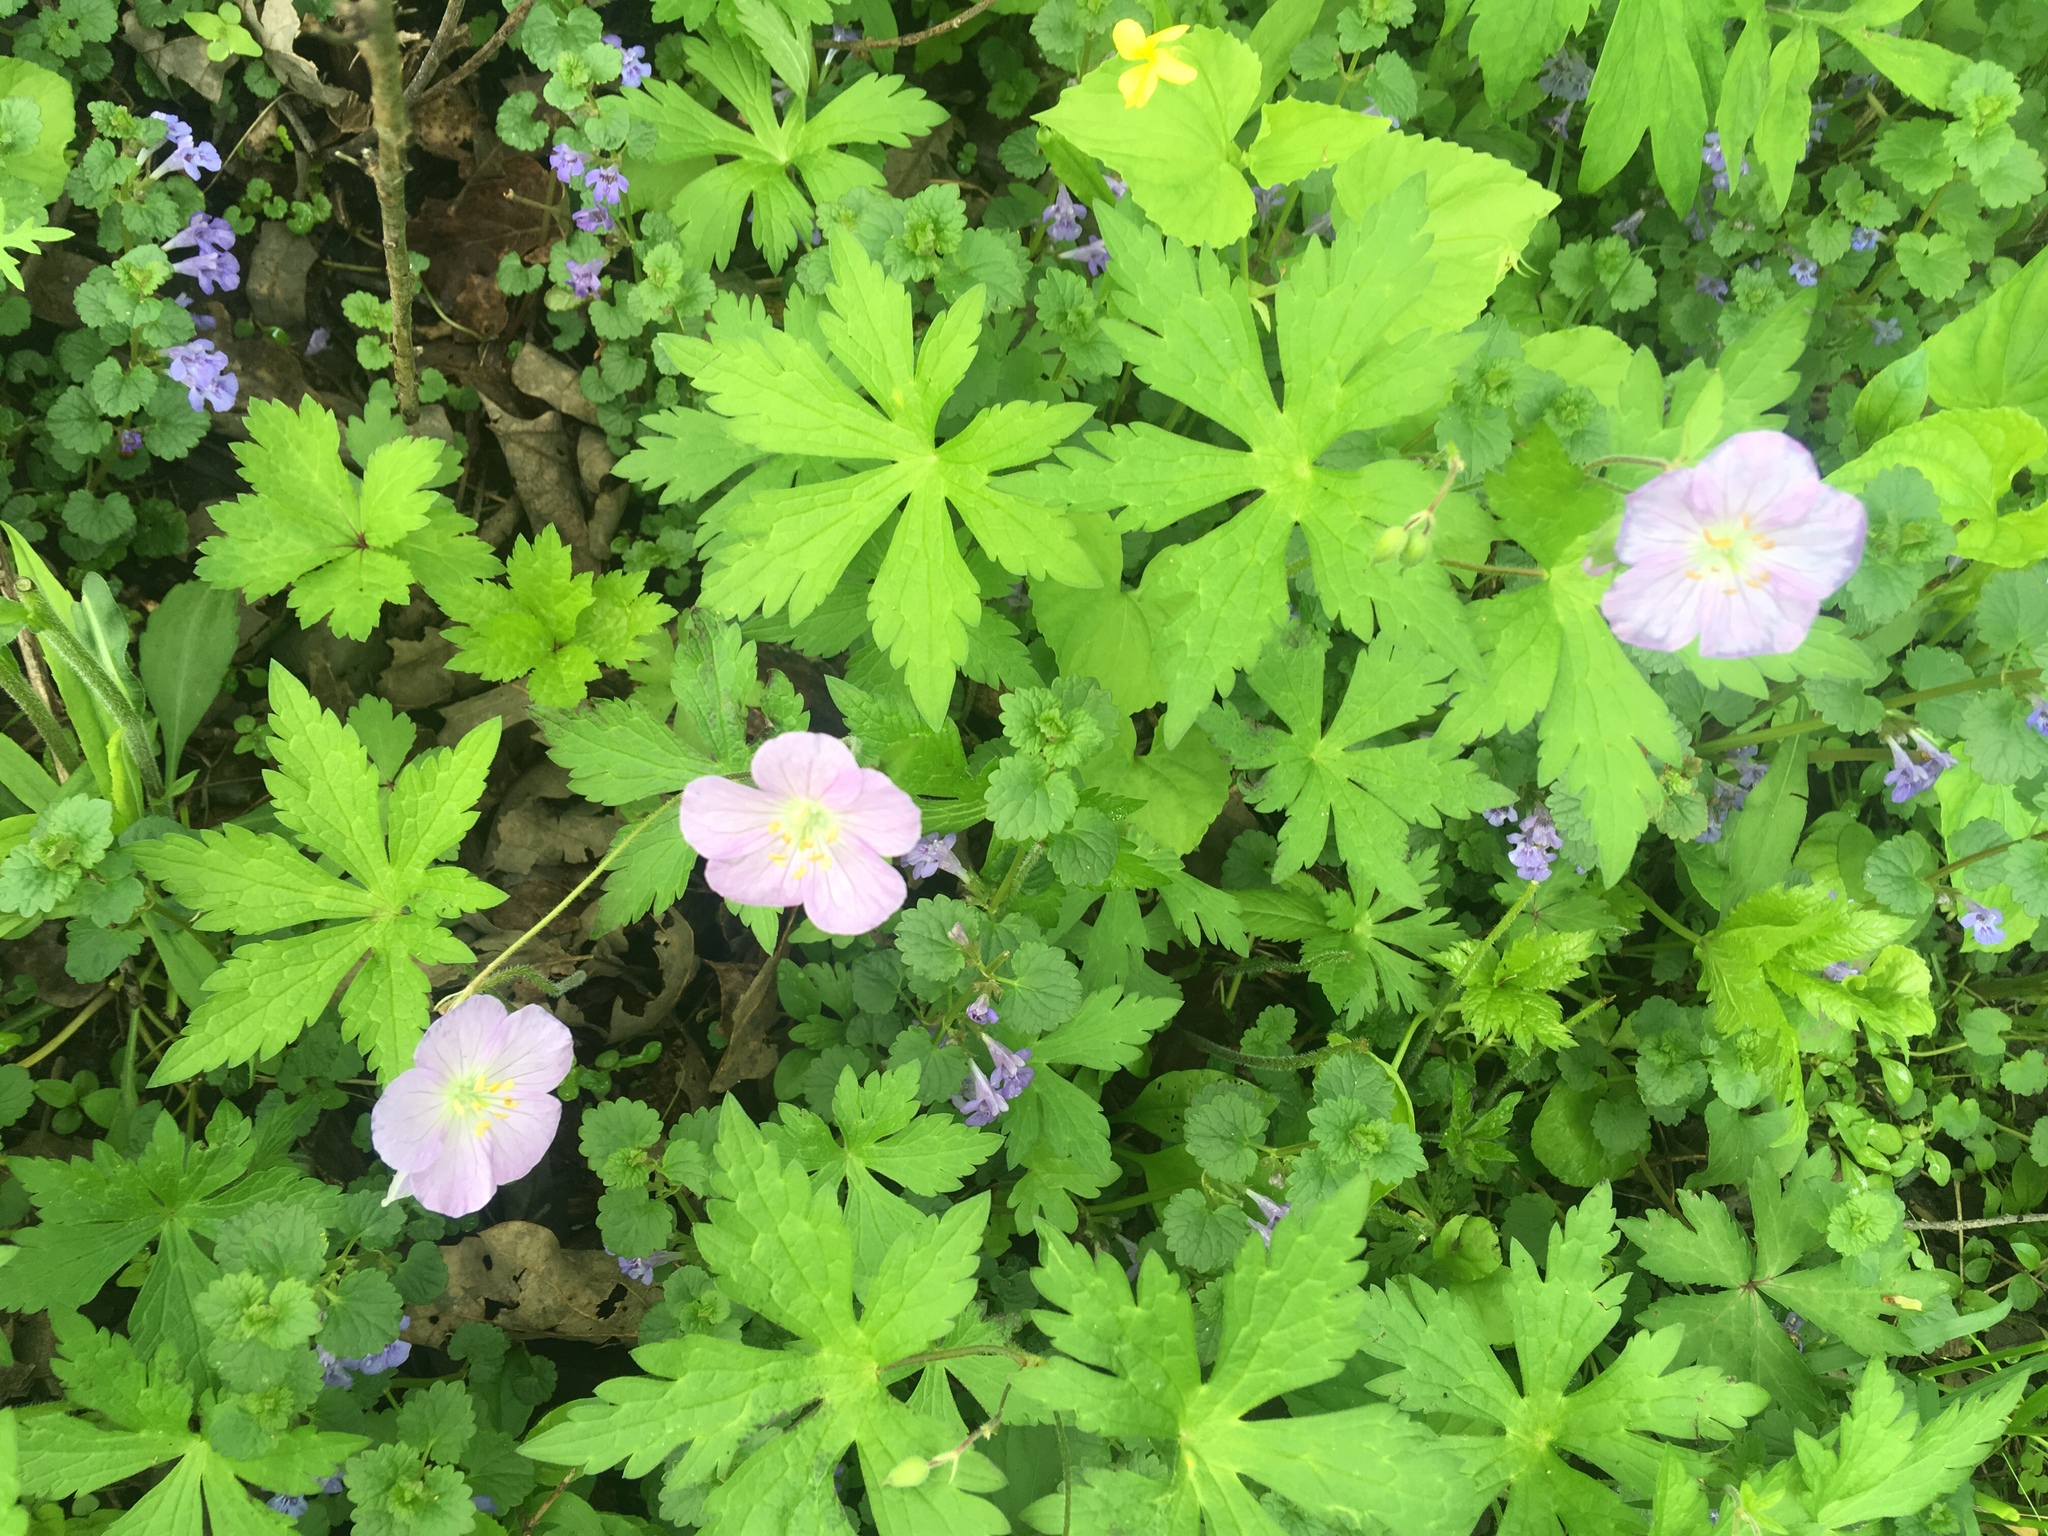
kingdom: Plantae
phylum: Tracheophyta
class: Magnoliopsida
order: Geraniales
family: Geraniaceae
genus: Geranium
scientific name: Geranium maculatum
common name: Spotted geranium
